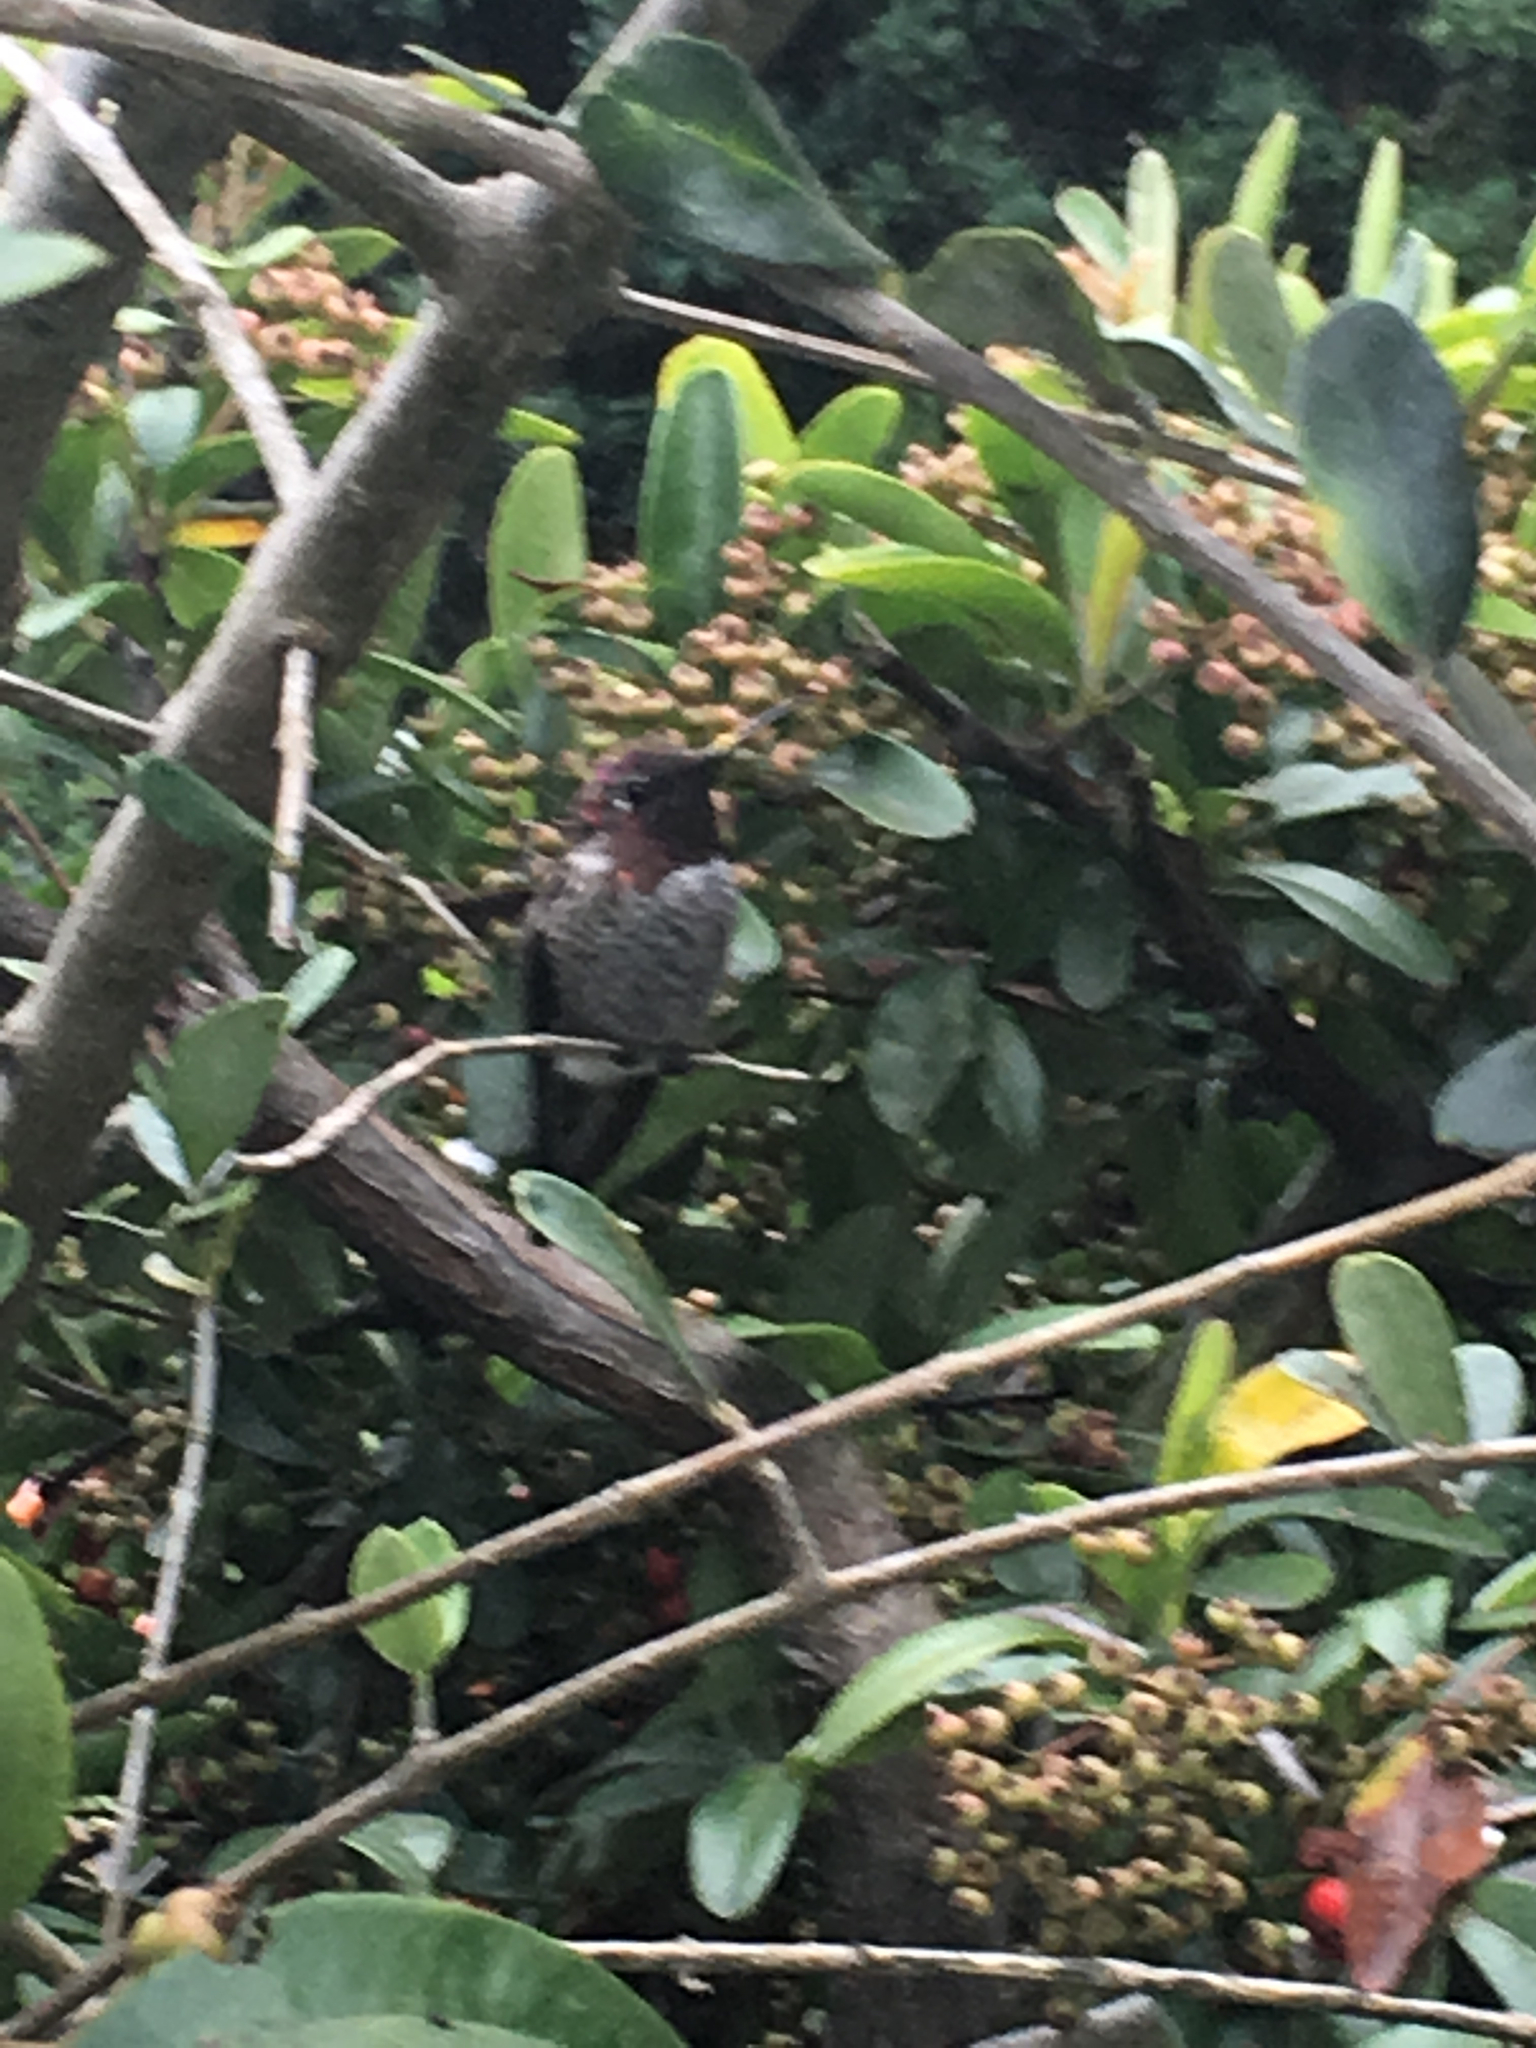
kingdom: Animalia
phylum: Chordata
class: Aves
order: Apodiformes
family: Trochilidae
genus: Calypte
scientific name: Calypte anna
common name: Anna's hummingbird
